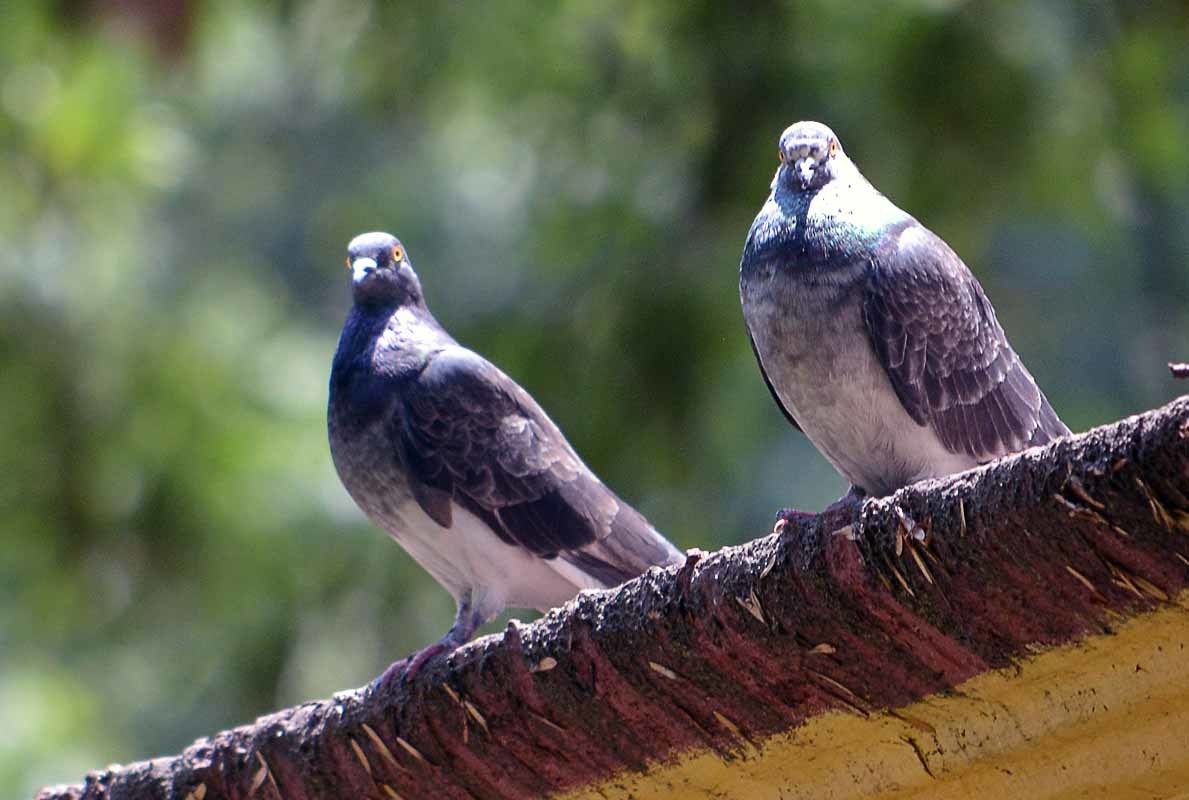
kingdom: Animalia
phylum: Chordata
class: Aves
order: Columbiformes
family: Columbidae
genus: Columba
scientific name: Columba livia
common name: Rock pigeon
